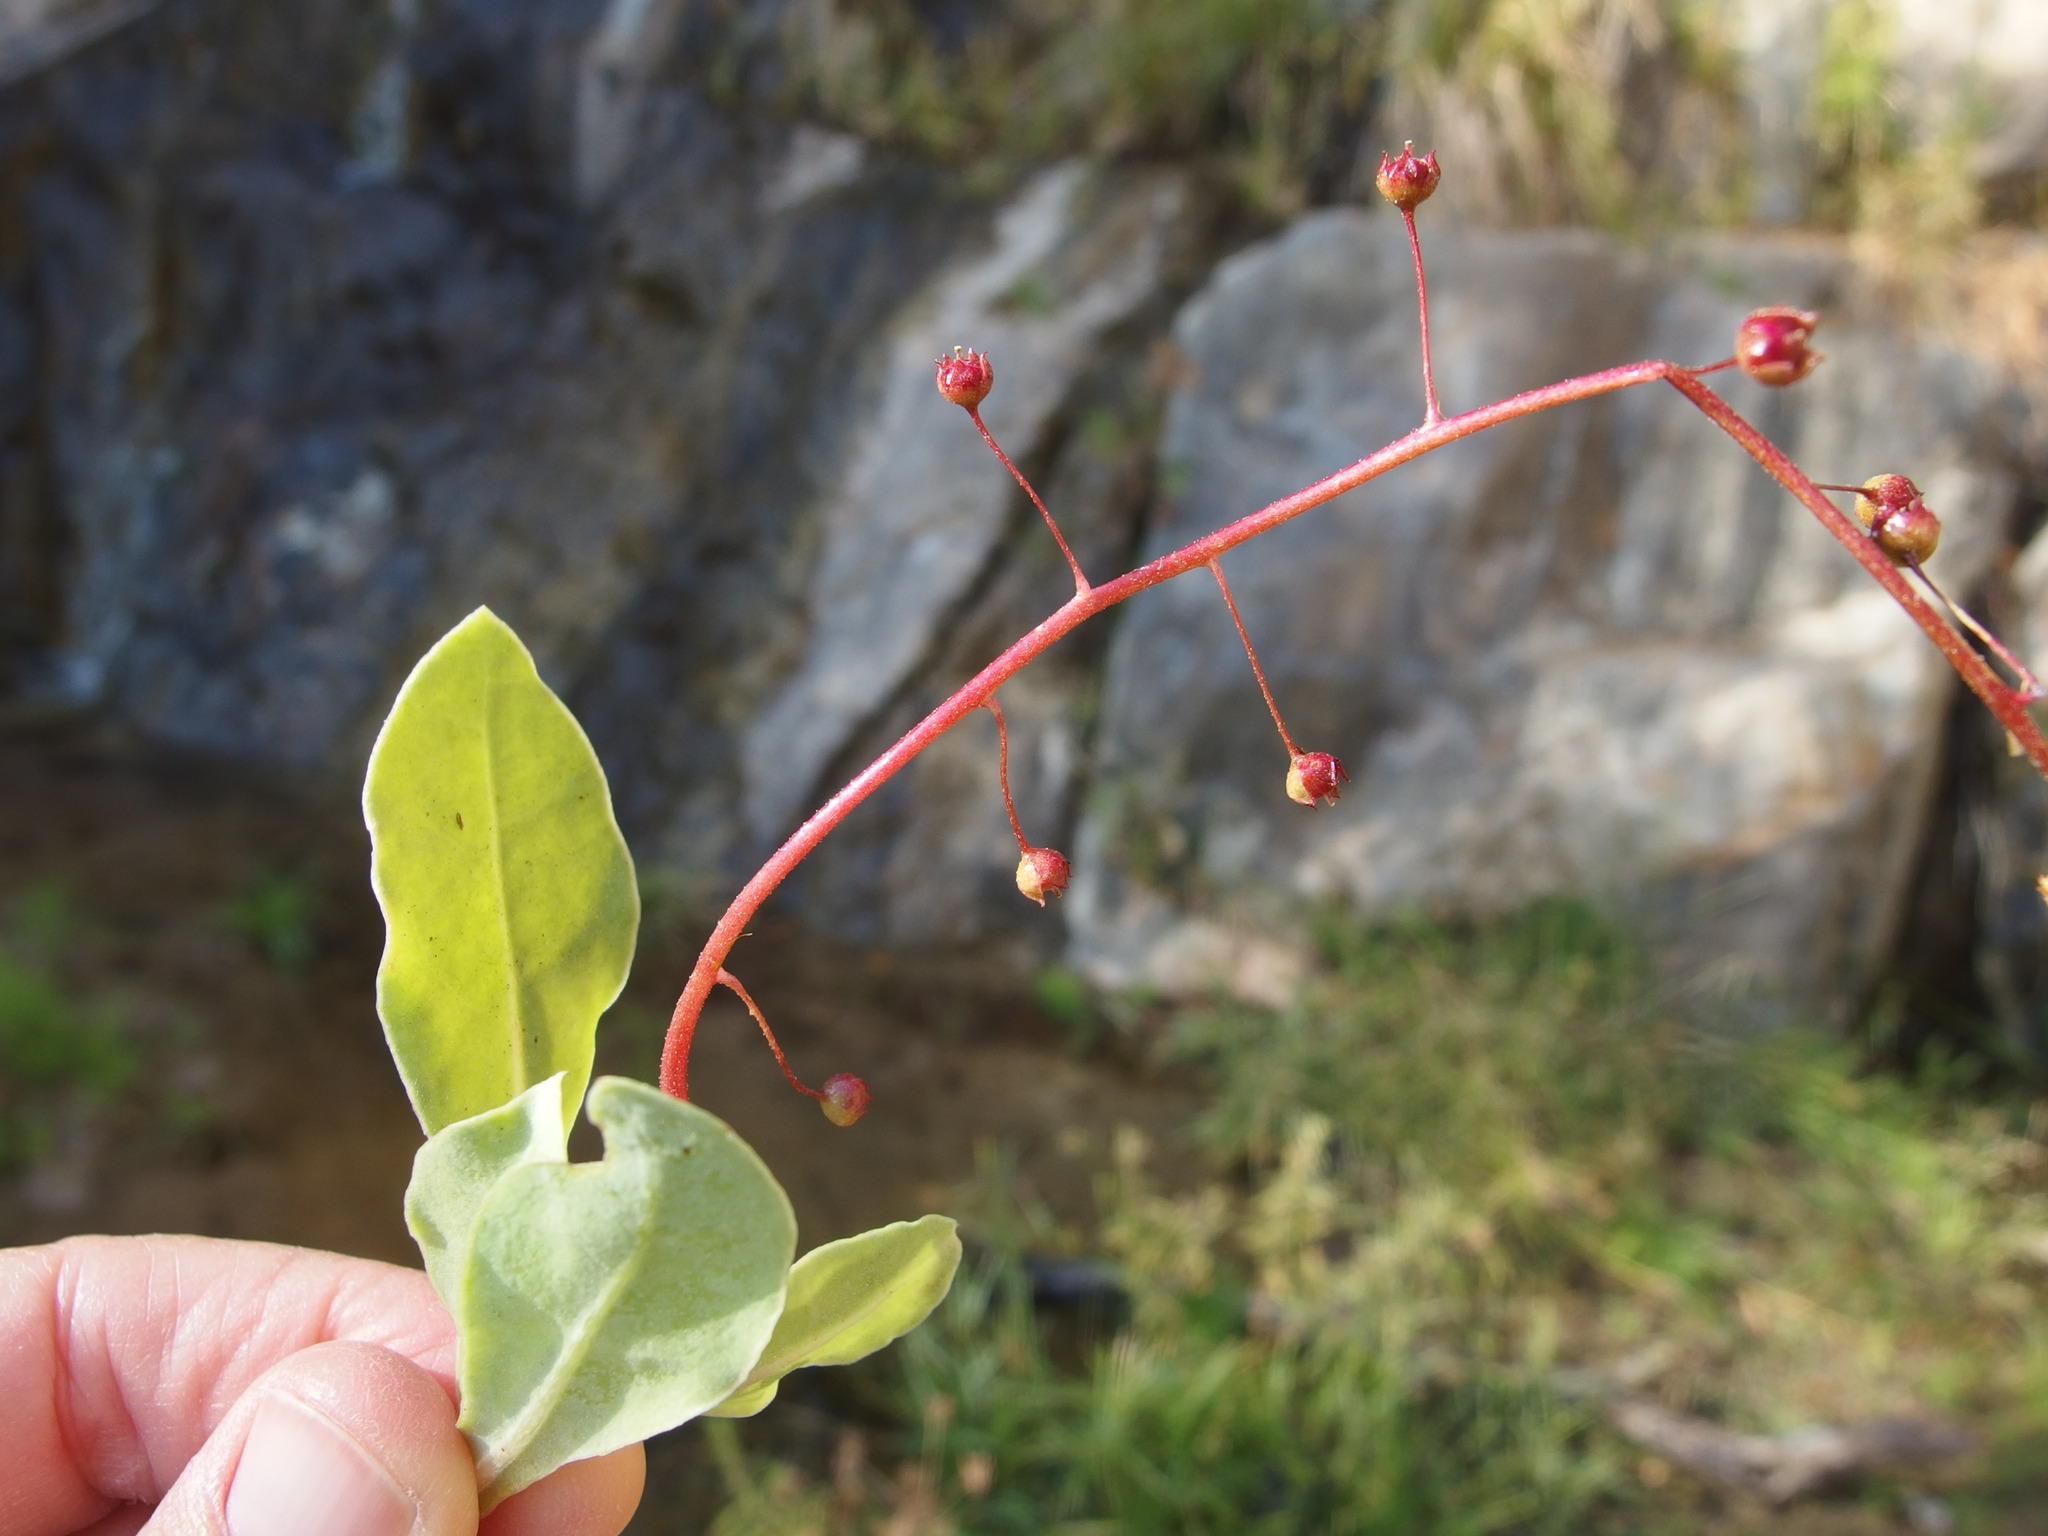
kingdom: Plantae
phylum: Tracheophyta
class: Magnoliopsida
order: Ericales
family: Primulaceae
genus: Samolus
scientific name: Samolus ebracteatus
